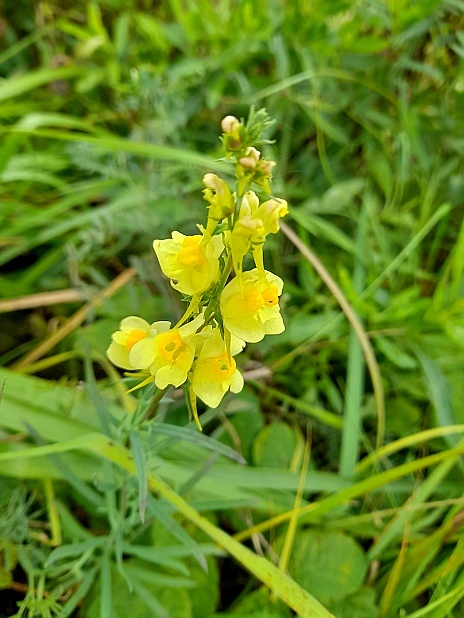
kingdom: Plantae
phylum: Tracheophyta
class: Magnoliopsida
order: Lamiales
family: Plantaginaceae
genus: Linaria
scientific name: Linaria vulgaris
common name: Butter and eggs
